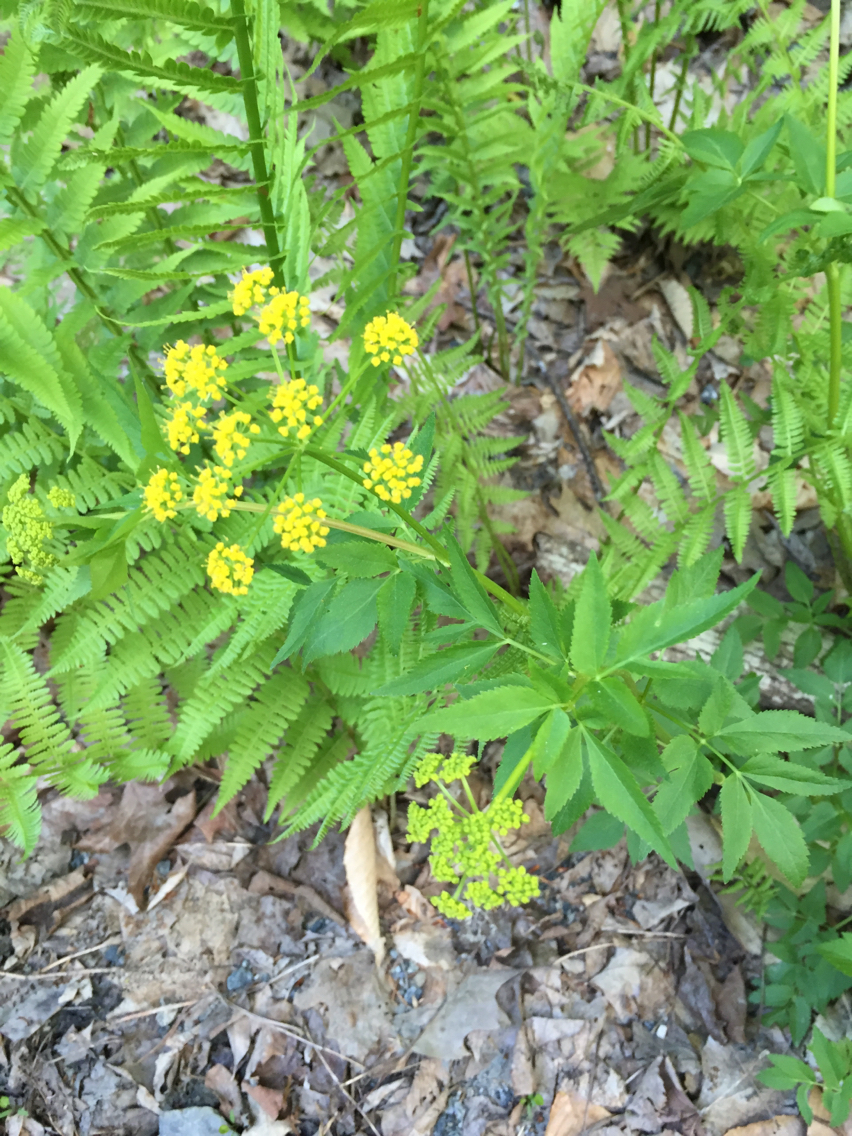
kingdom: Plantae
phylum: Tracheophyta
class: Magnoliopsida
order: Apiales
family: Apiaceae
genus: Zizia
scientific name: Zizia aurea
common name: Golden alexanders
